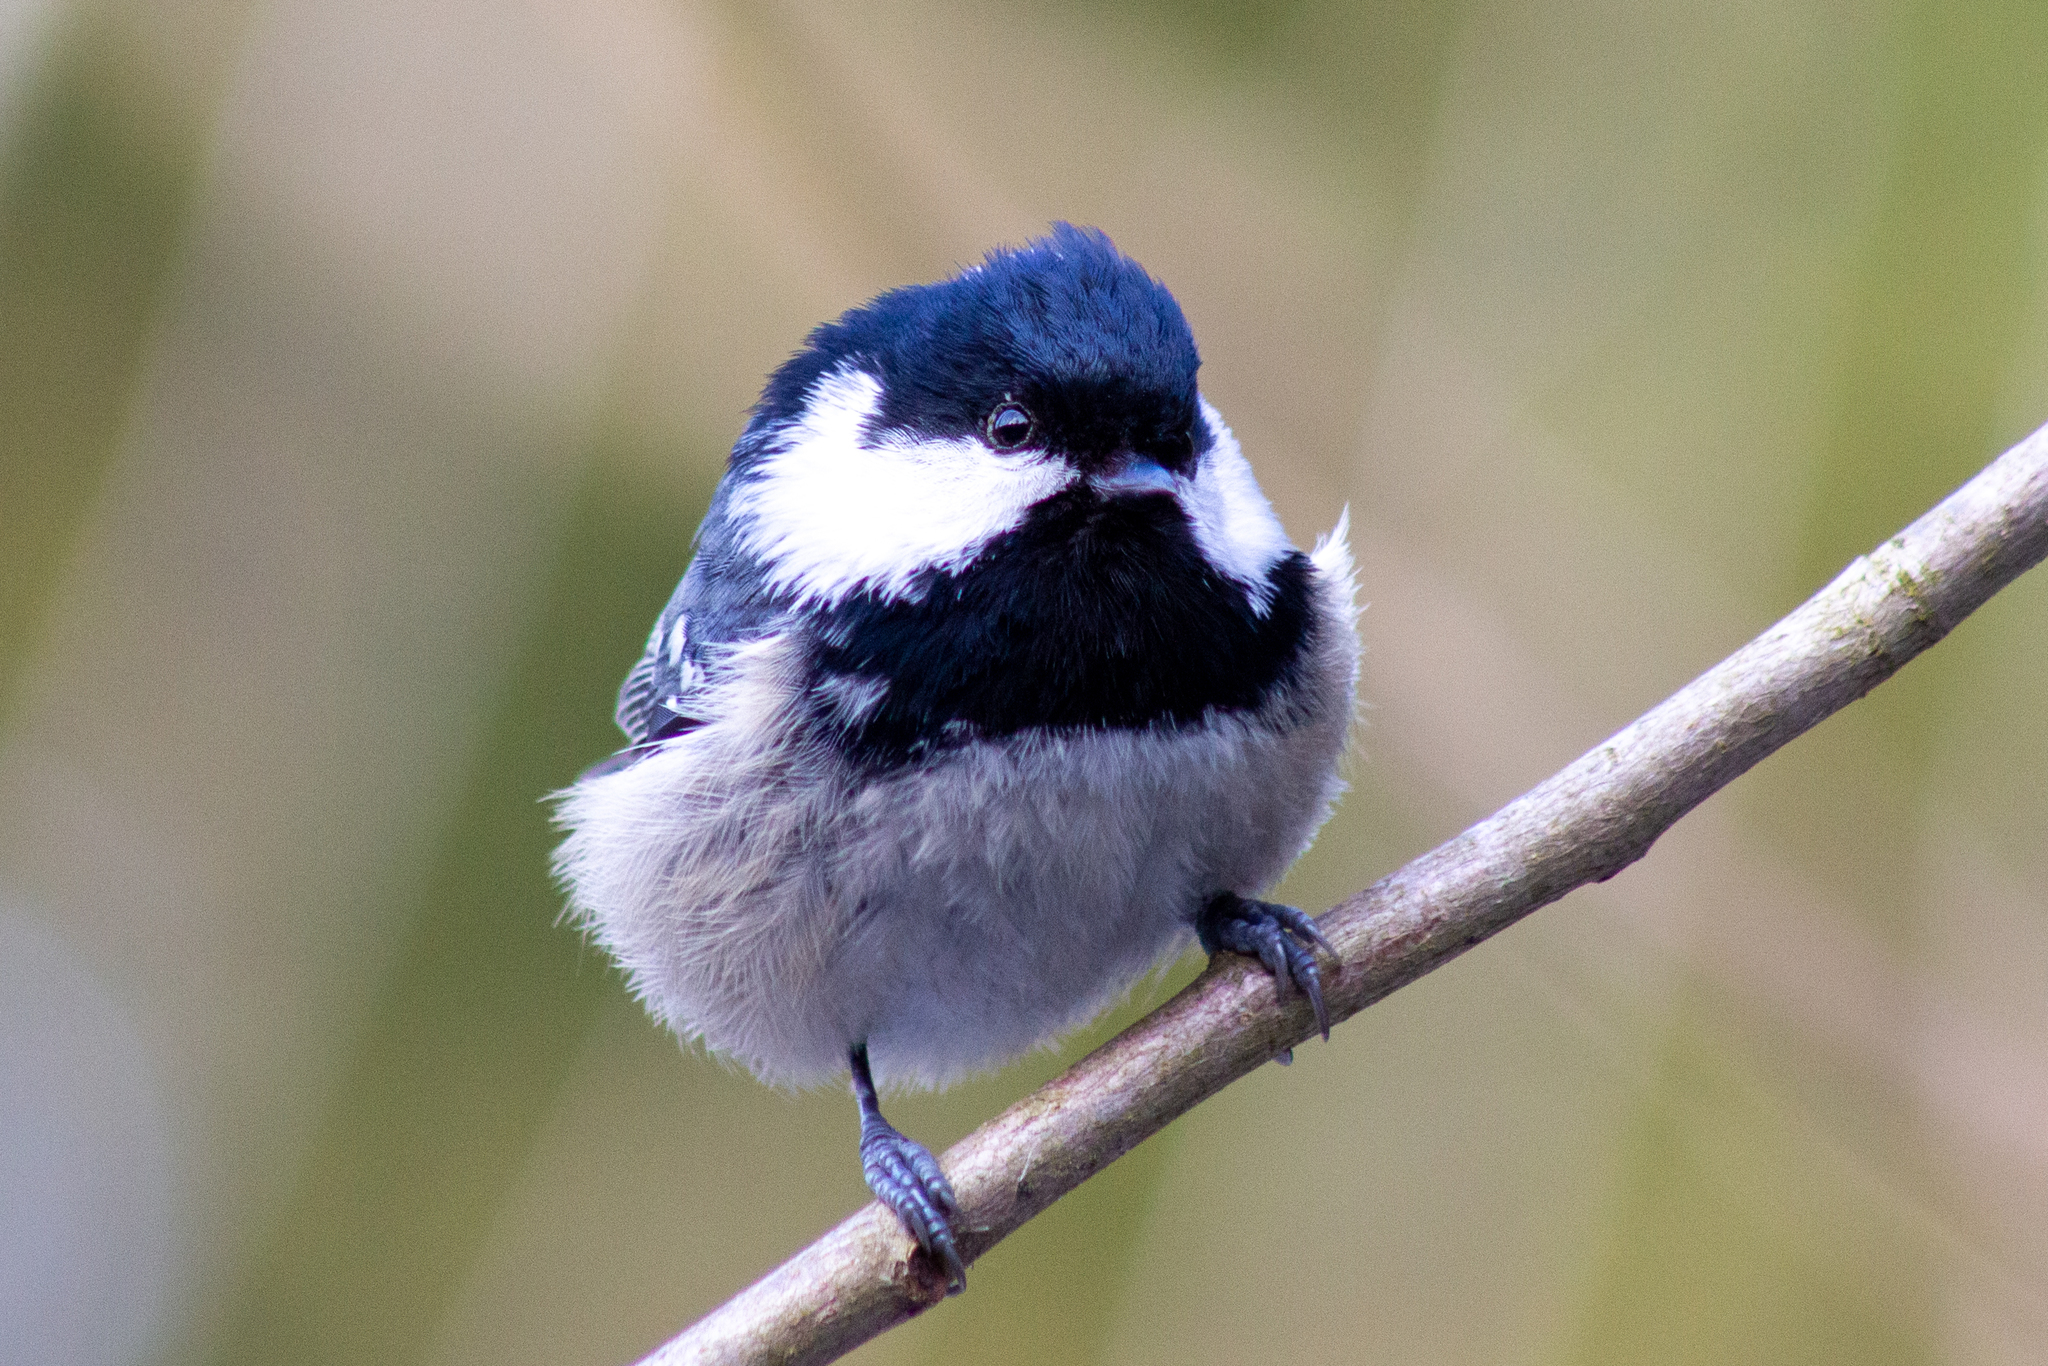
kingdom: Animalia
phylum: Chordata
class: Aves
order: Passeriformes
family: Paridae
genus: Periparus
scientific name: Periparus ater
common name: Coal tit
